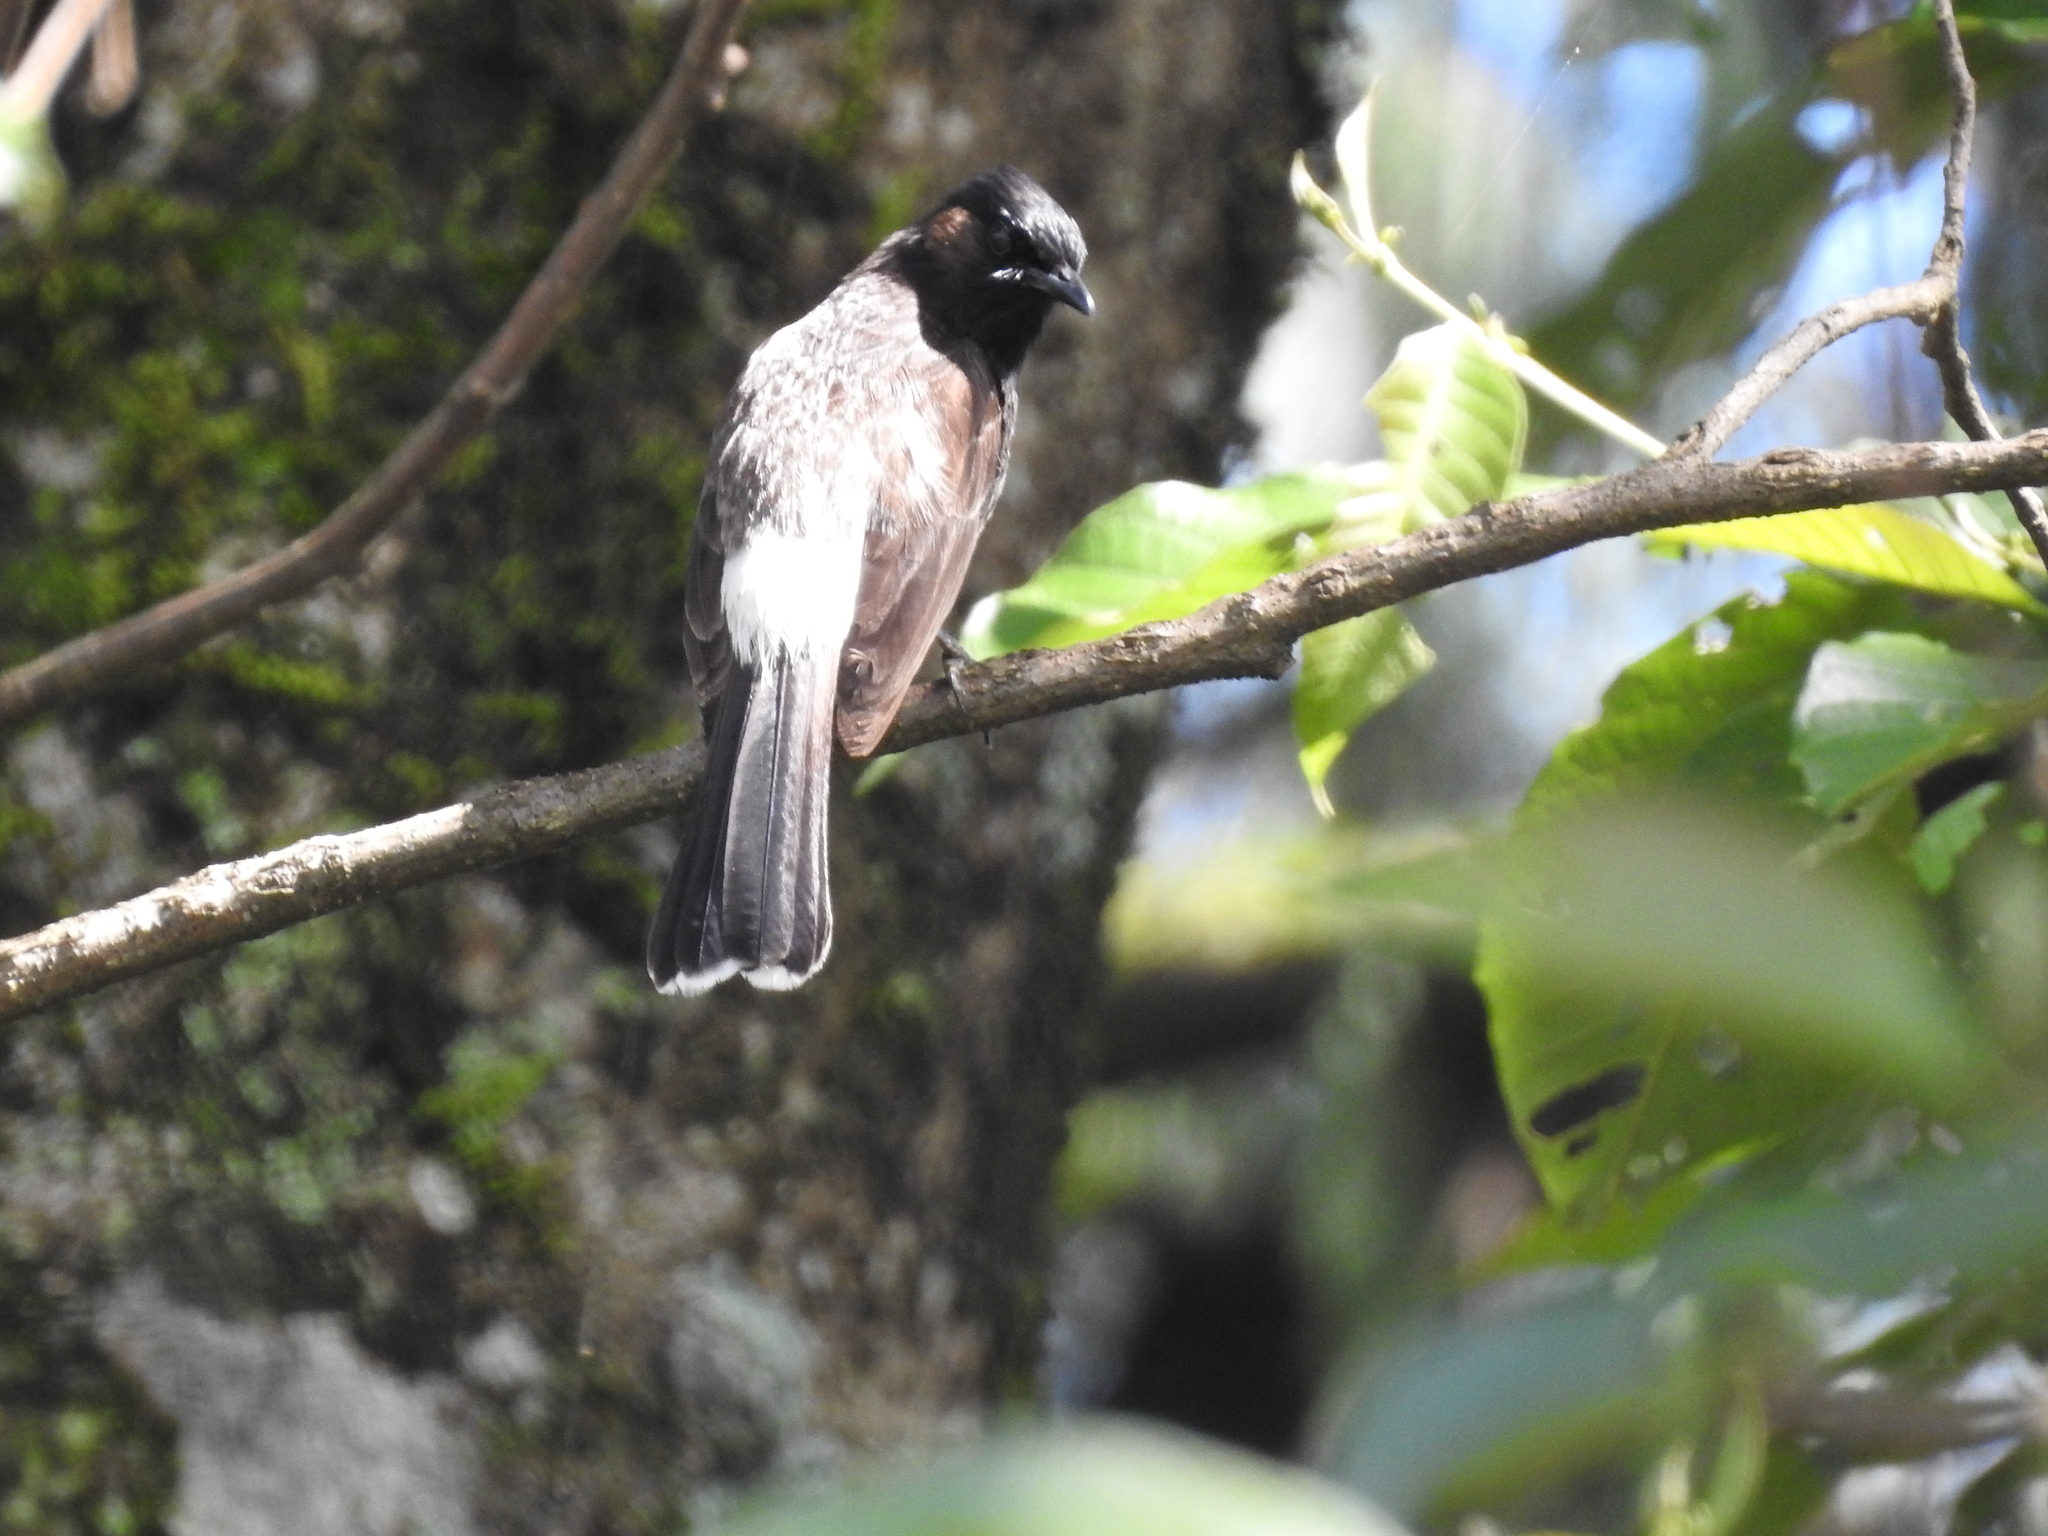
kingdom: Animalia
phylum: Chordata
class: Aves
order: Passeriformes
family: Pycnonotidae
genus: Pycnonotus
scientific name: Pycnonotus cafer
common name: Red-vented bulbul
